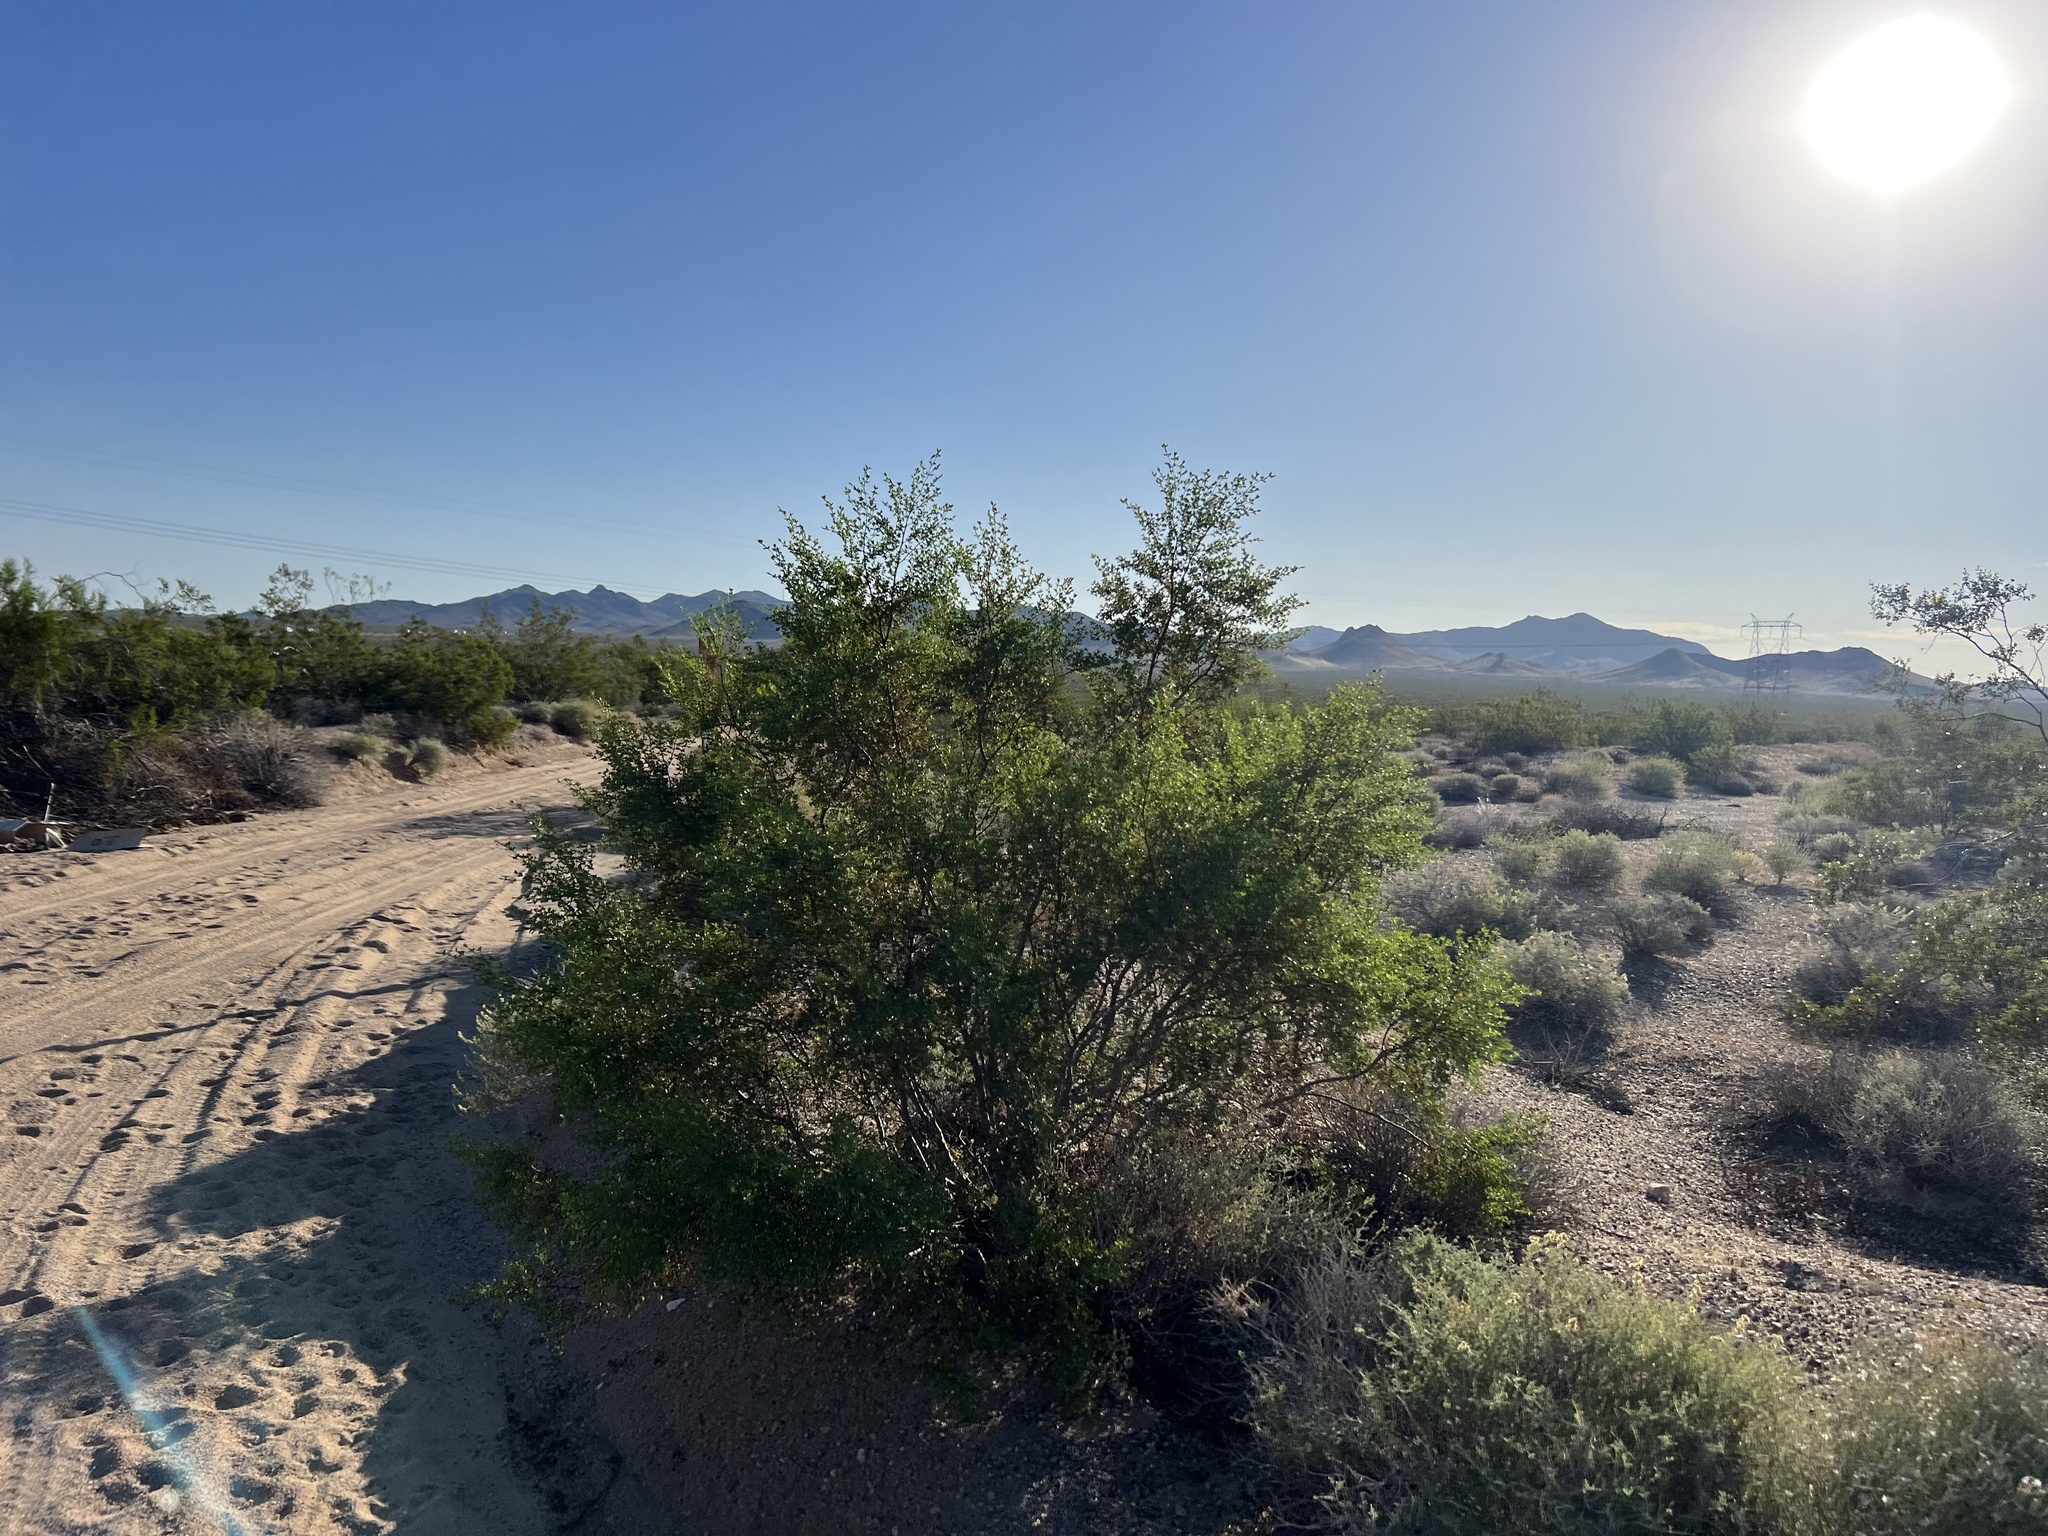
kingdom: Plantae
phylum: Tracheophyta
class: Magnoliopsida
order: Zygophyllales
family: Zygophyllaceae
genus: Larrea
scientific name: Larrea tridentata
